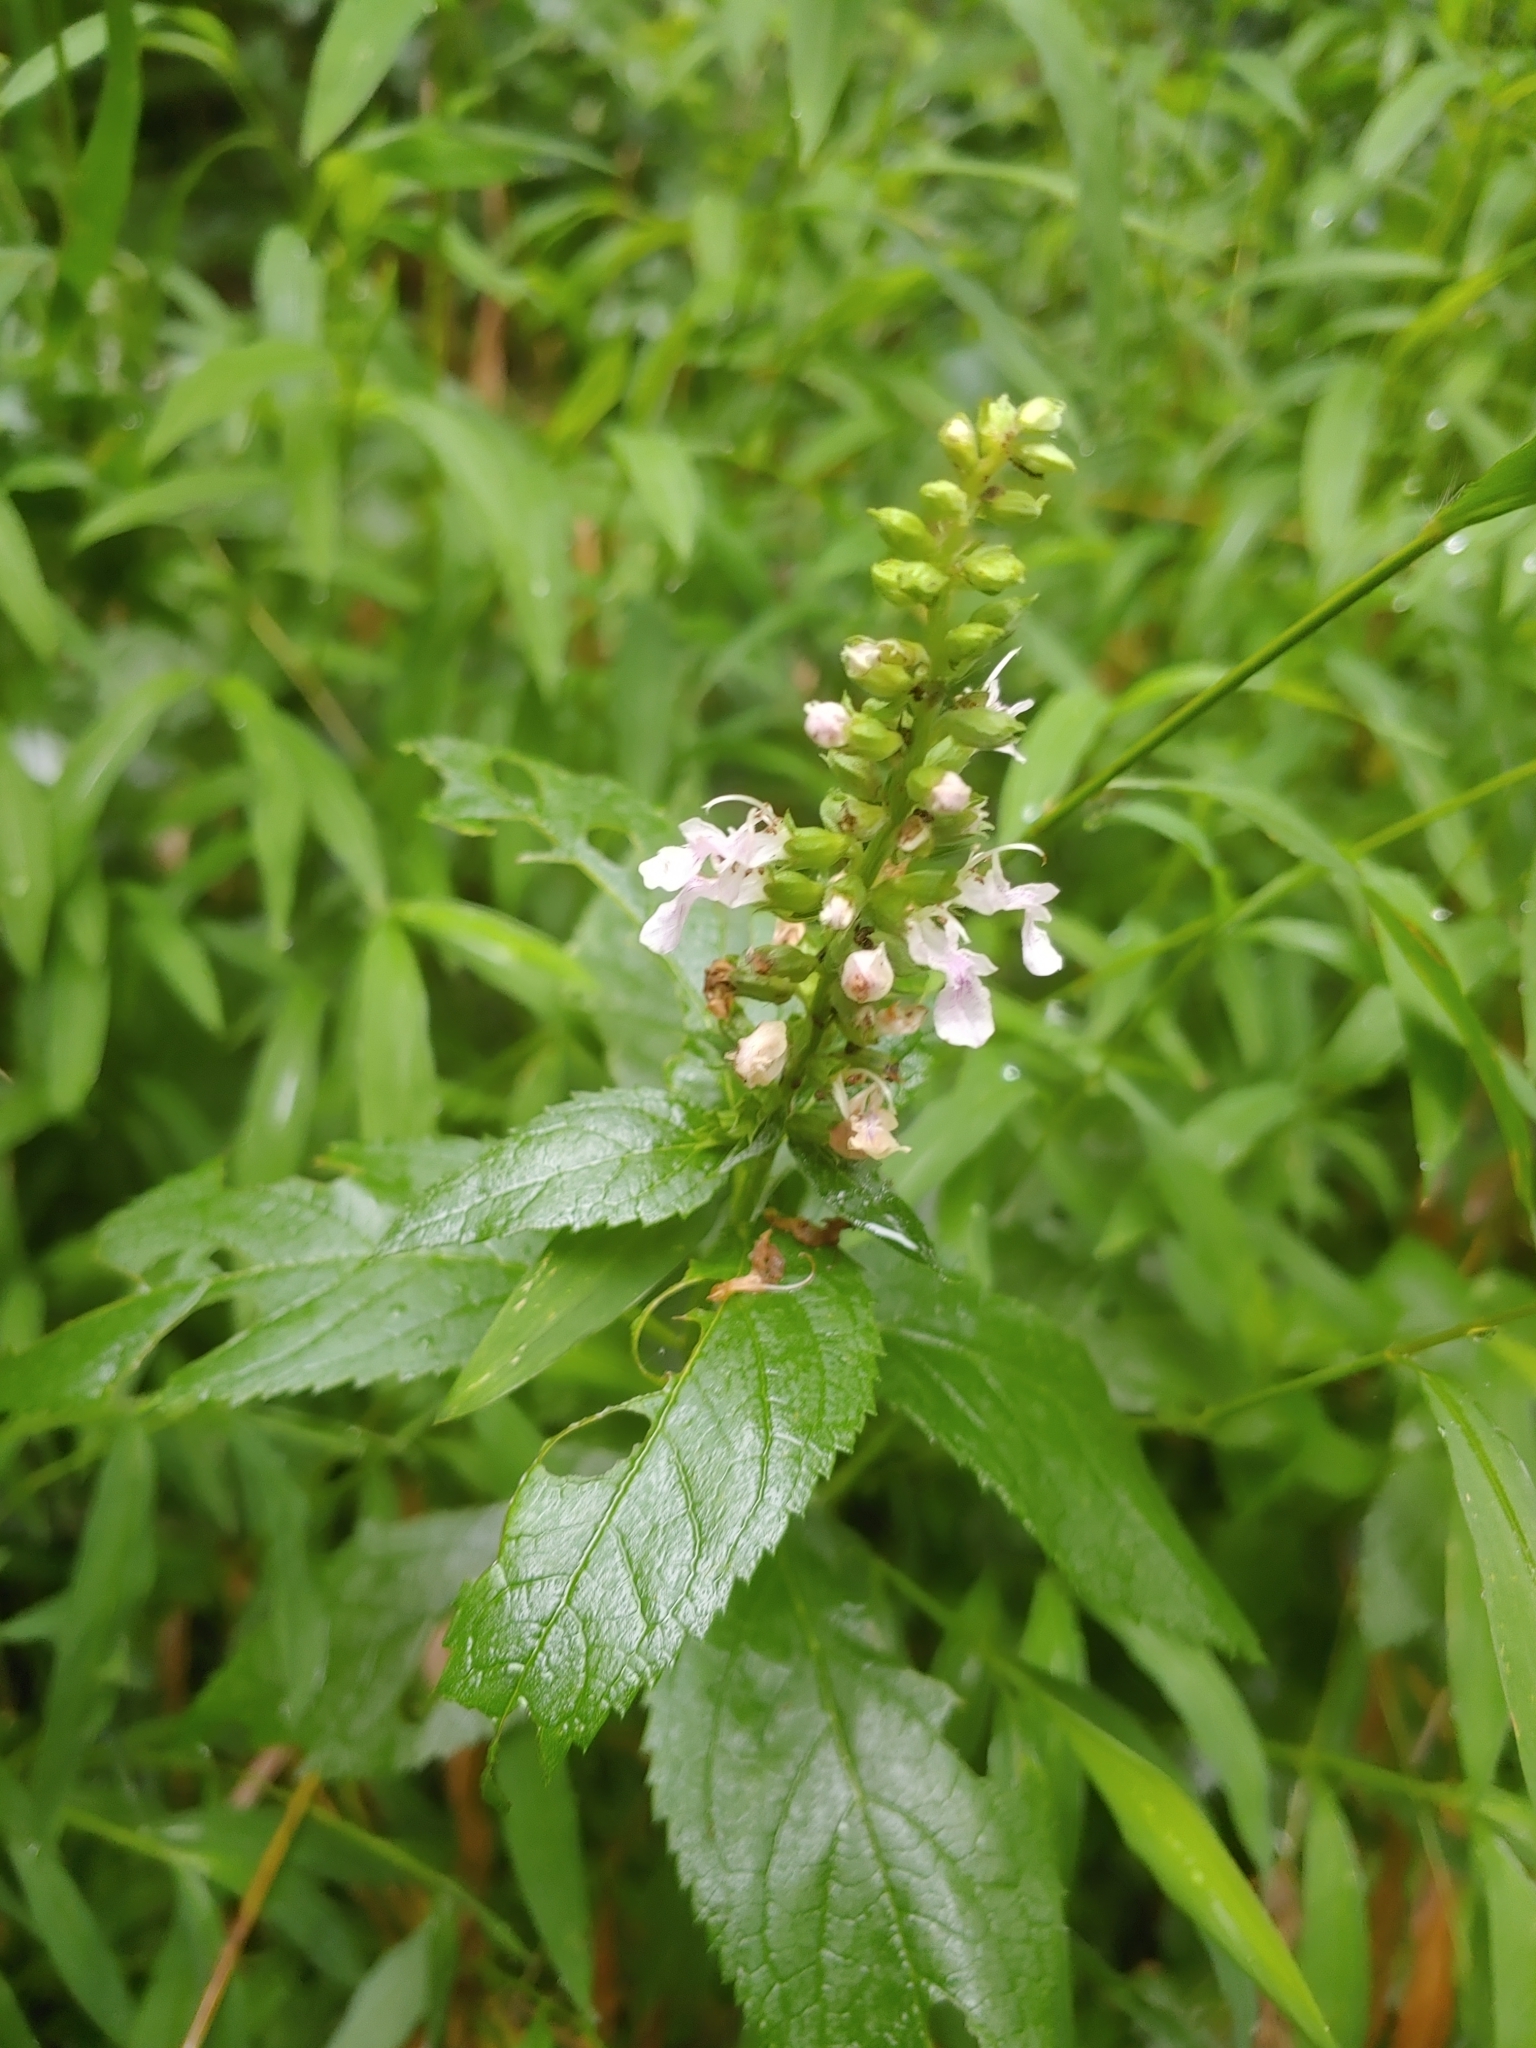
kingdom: Plantae
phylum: Tracheophyta
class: Magnoliopsida
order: Lamiales
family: Lamiaceae
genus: Teucrium
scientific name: Teucrium canadense
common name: American germander
